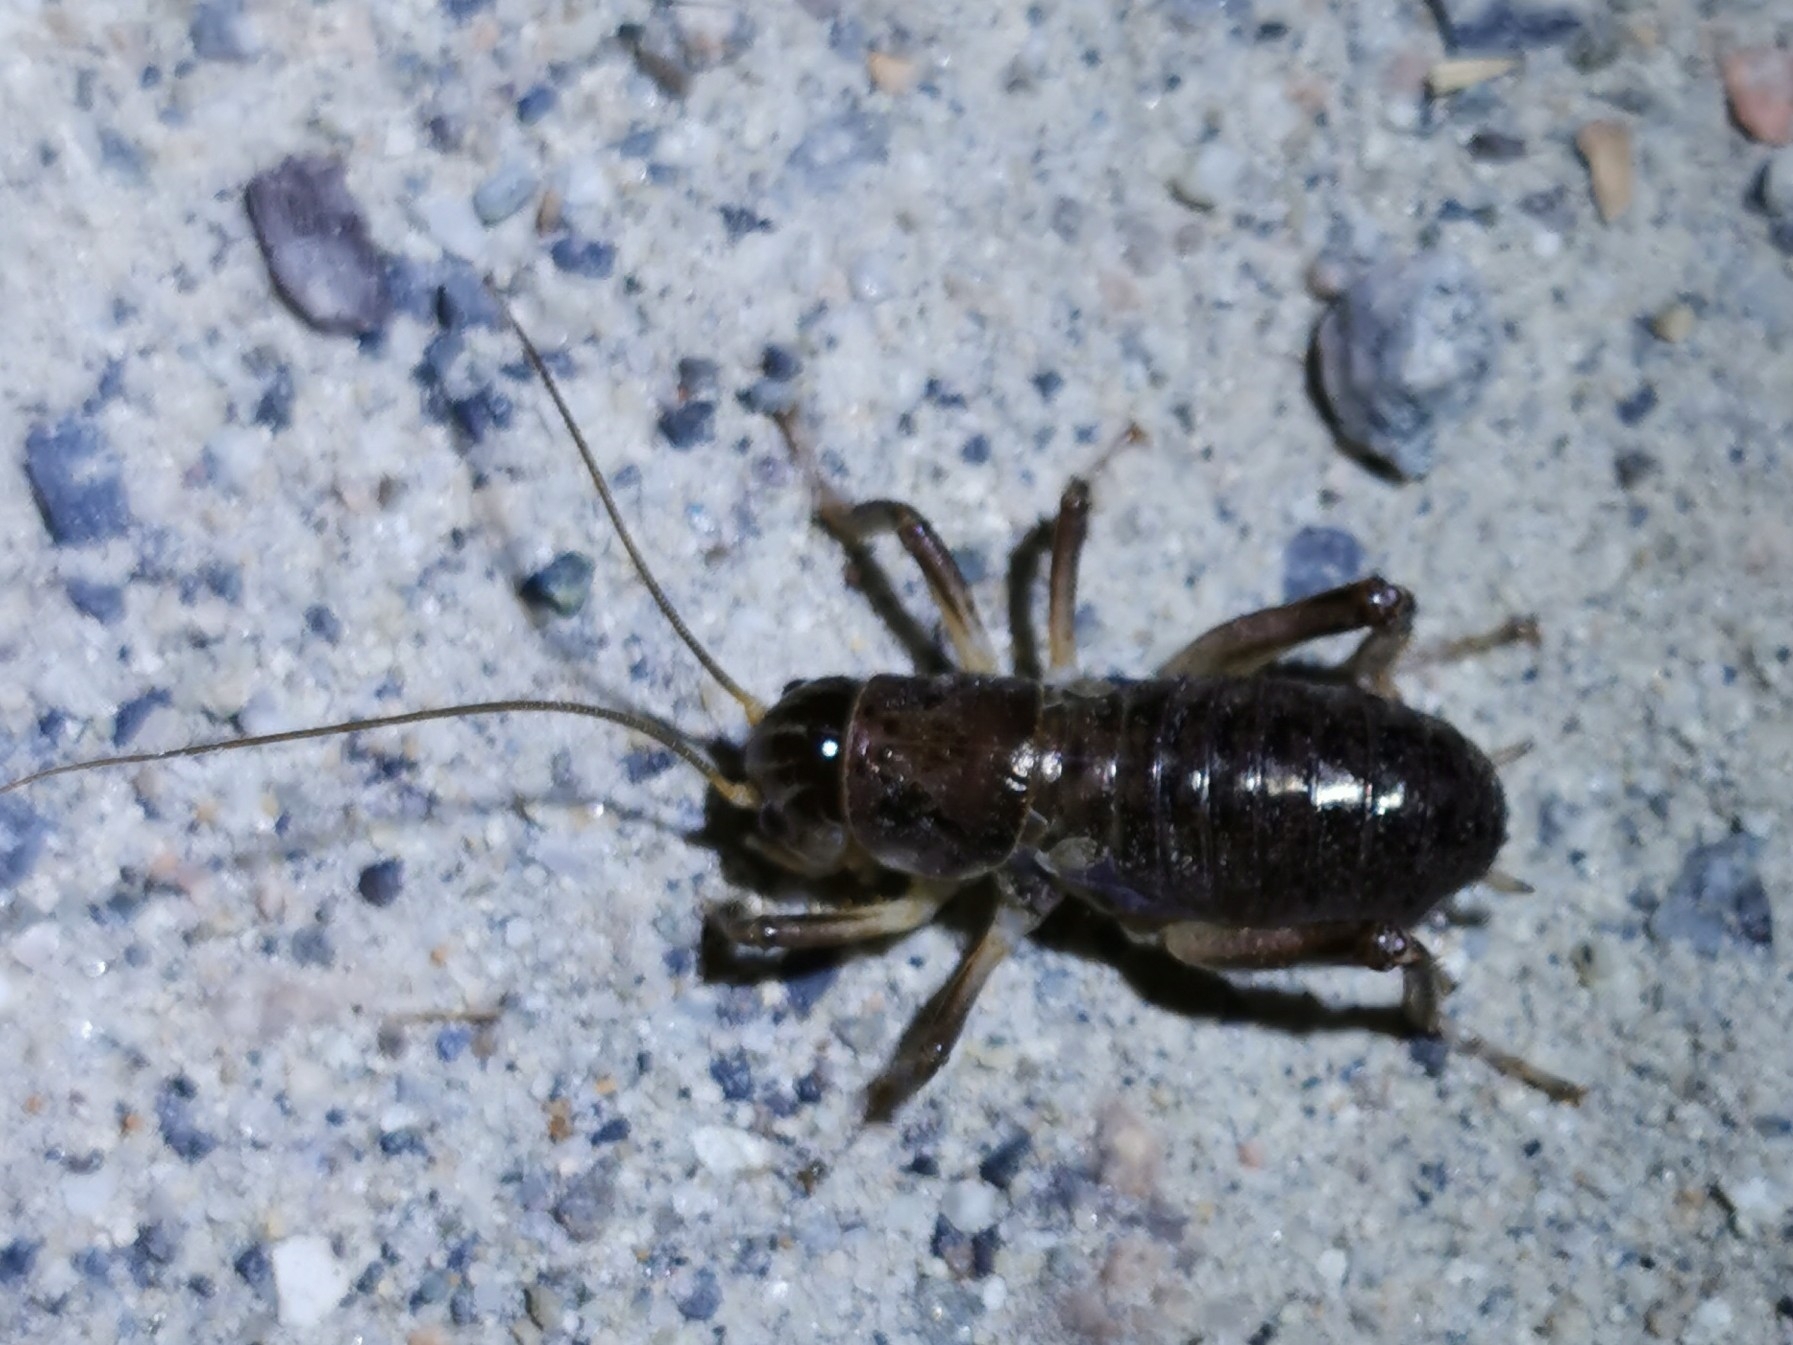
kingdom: Animalia
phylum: Arthropoda
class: Insecta
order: Orthoptera
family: Prophalangopsidae
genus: Cyphoderris
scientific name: Cyphoderris buckelli
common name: Buckell’s grig
